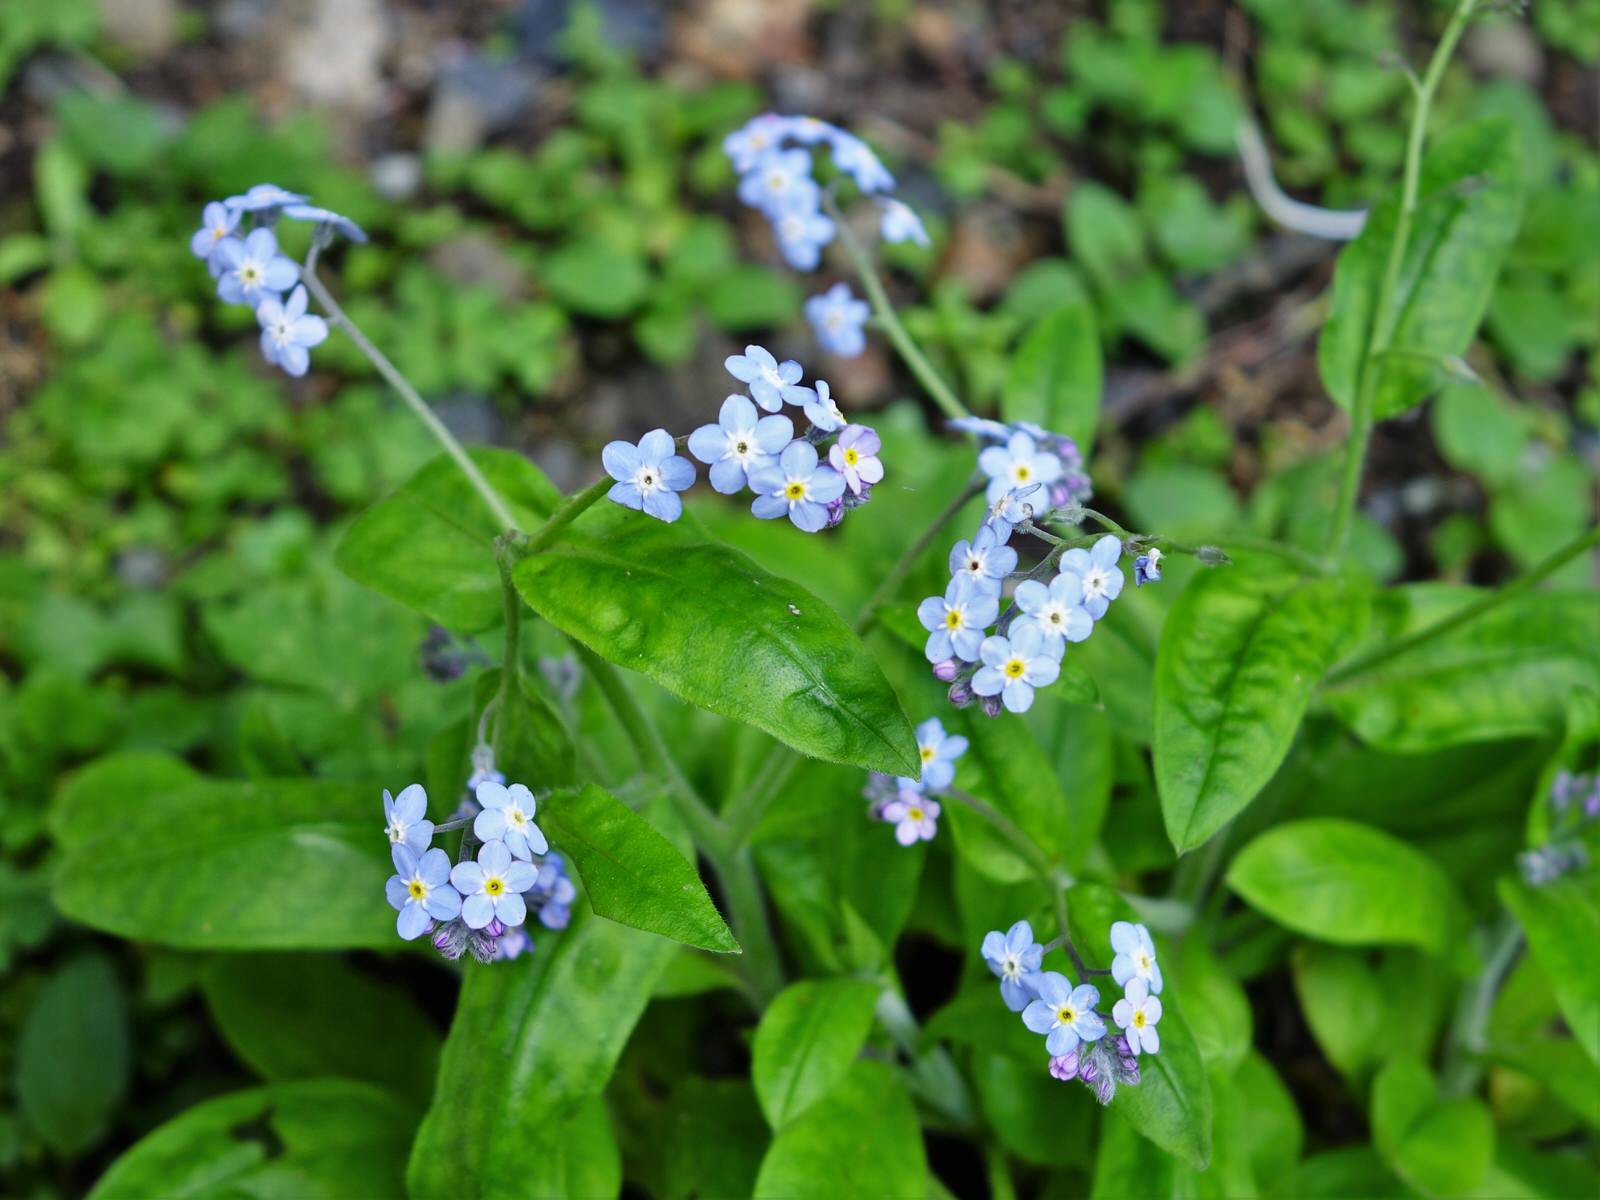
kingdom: Plantae
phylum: Tracheophyta
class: Magnoliopsida
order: Boraginales
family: Boraginaceae
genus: Myosotis
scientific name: Myosotis sylvatica
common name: Wood forget-me-not
